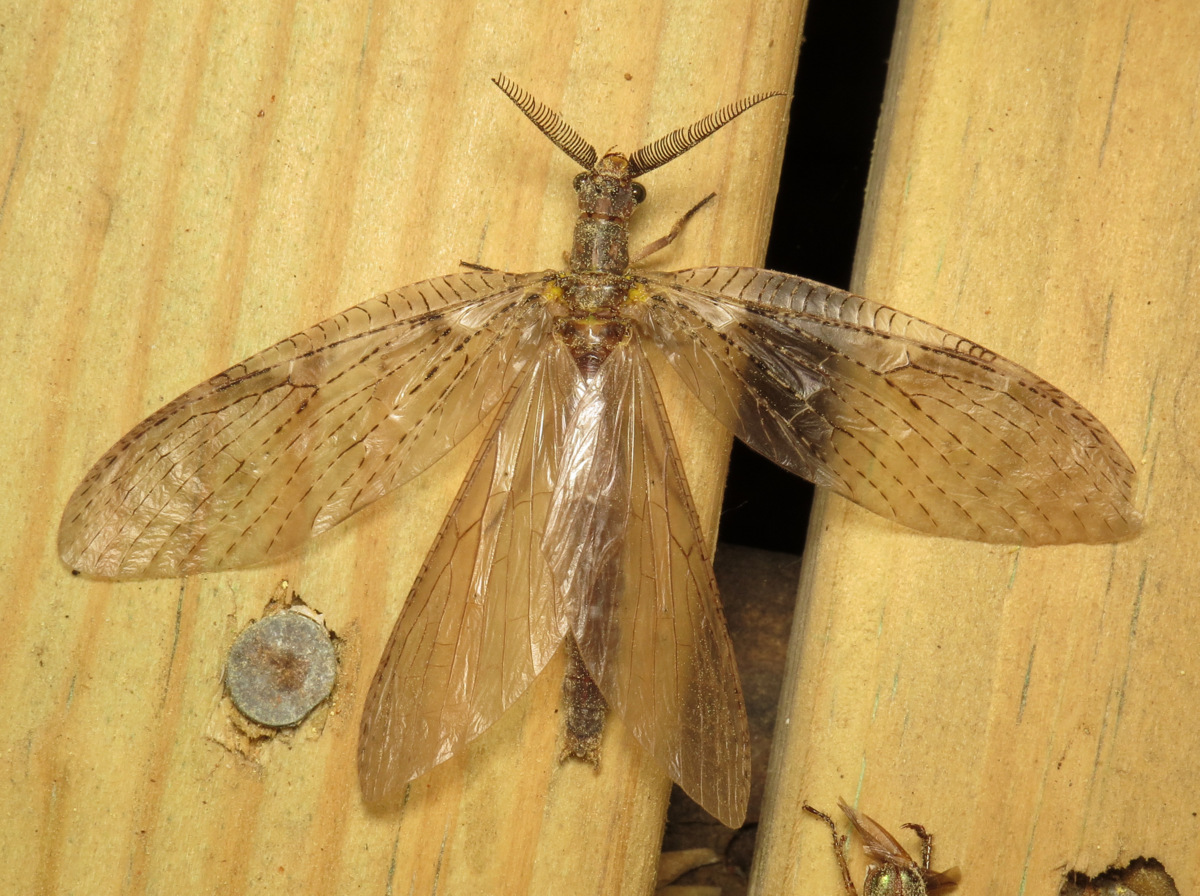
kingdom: Animalia
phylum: Arthropoda
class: Insecta
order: Megaloptera
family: Corydalidae
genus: Chauliodes
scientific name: Chauliodes pectinicornis
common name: Summer fishfly
